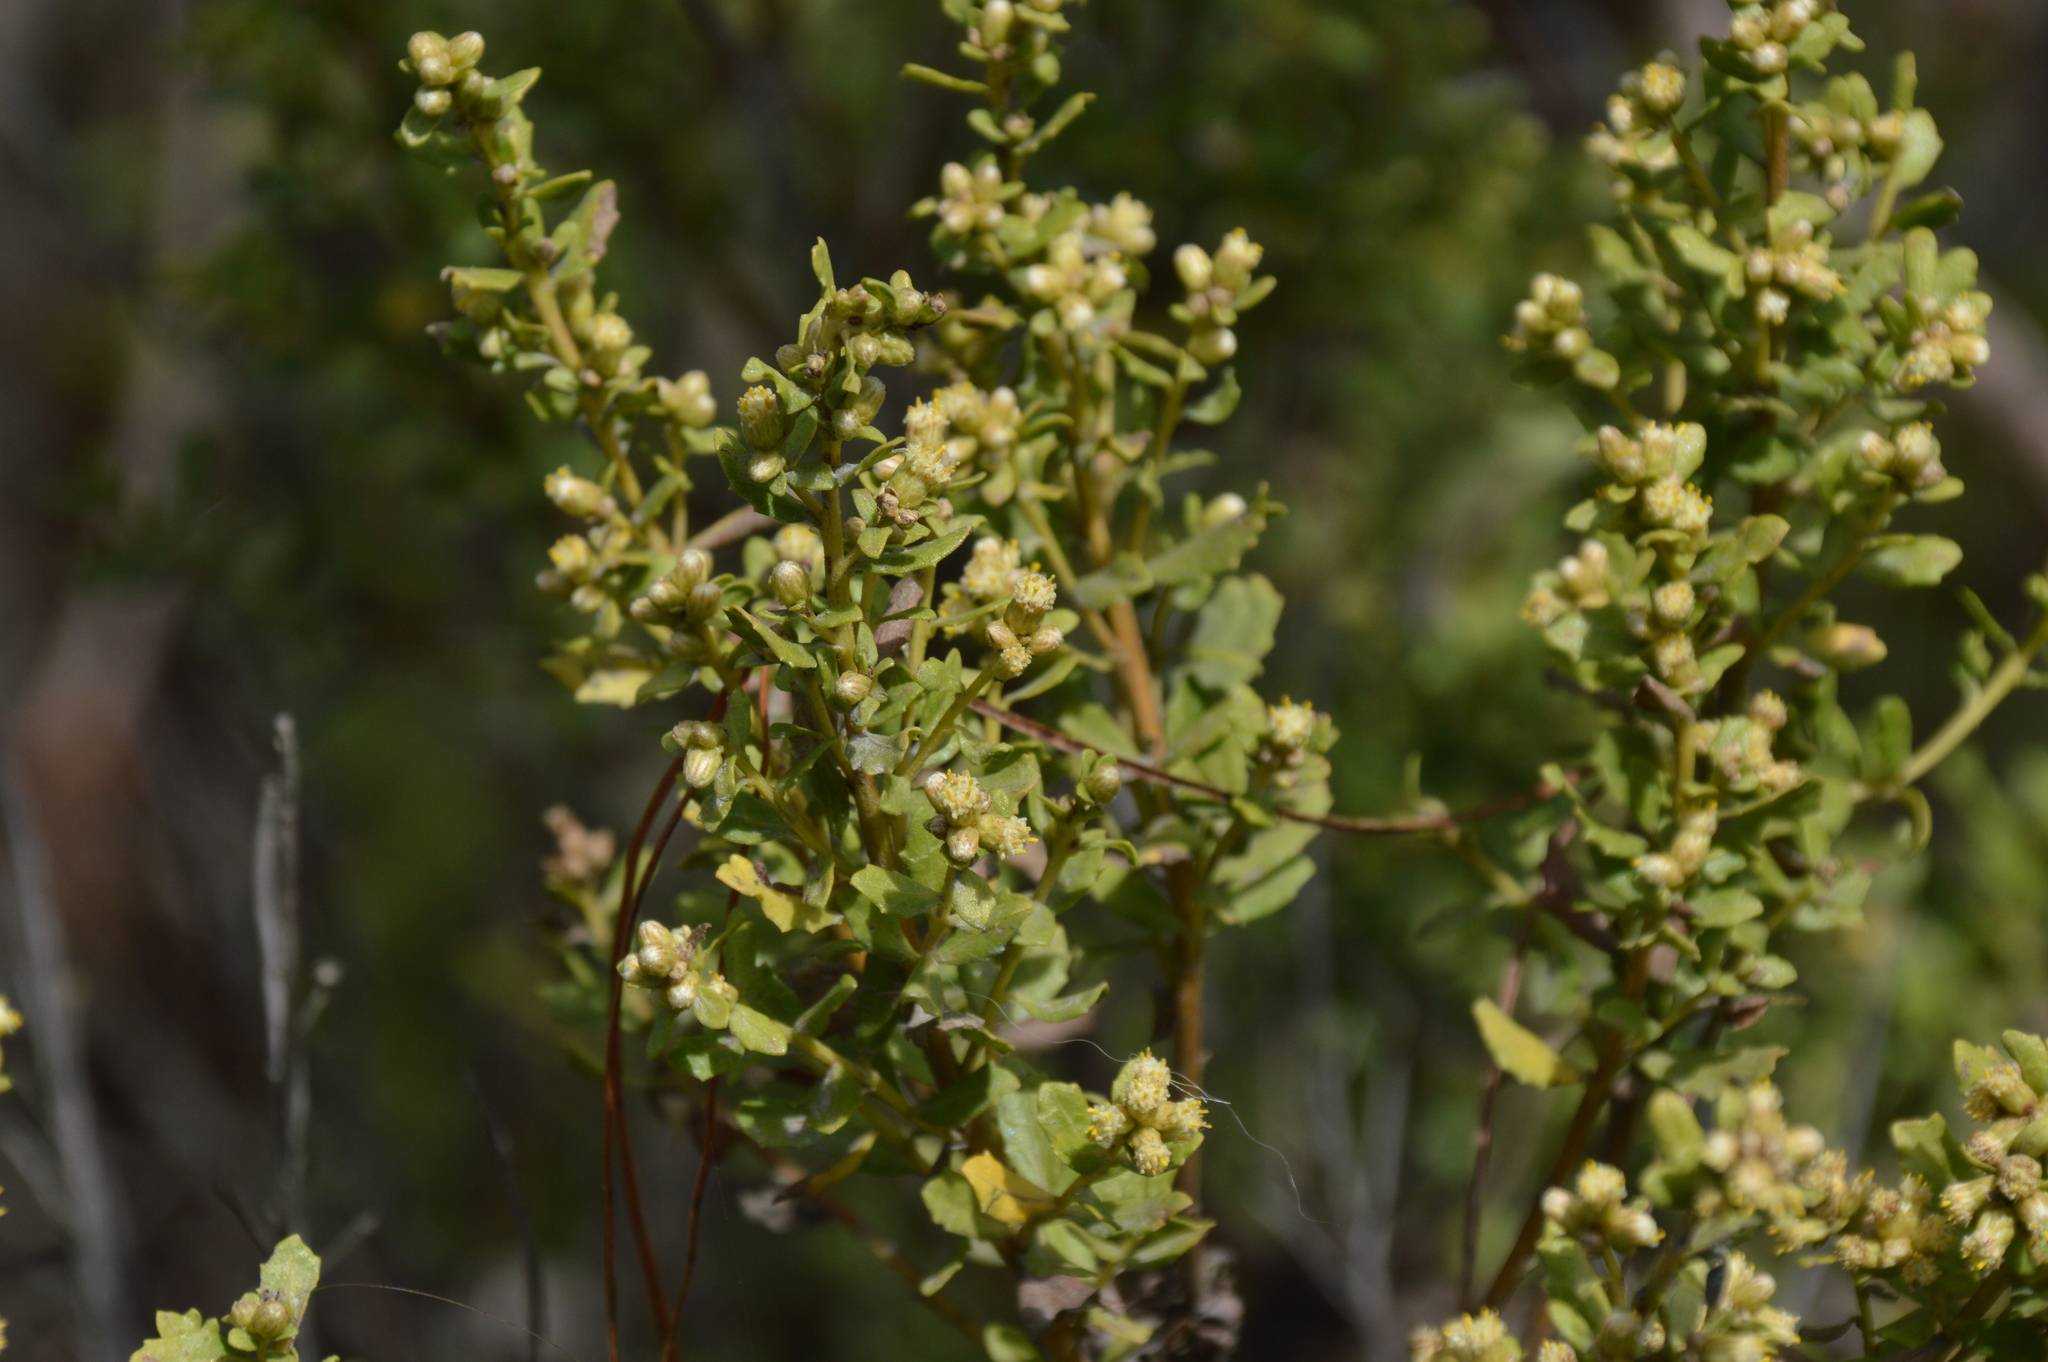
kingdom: Plantae
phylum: Tracheophyta
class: Magnoliopsida
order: Asterales
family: Asteraceae
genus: Baccharis
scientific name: Baccharis pilularis
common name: Coyotebrush
